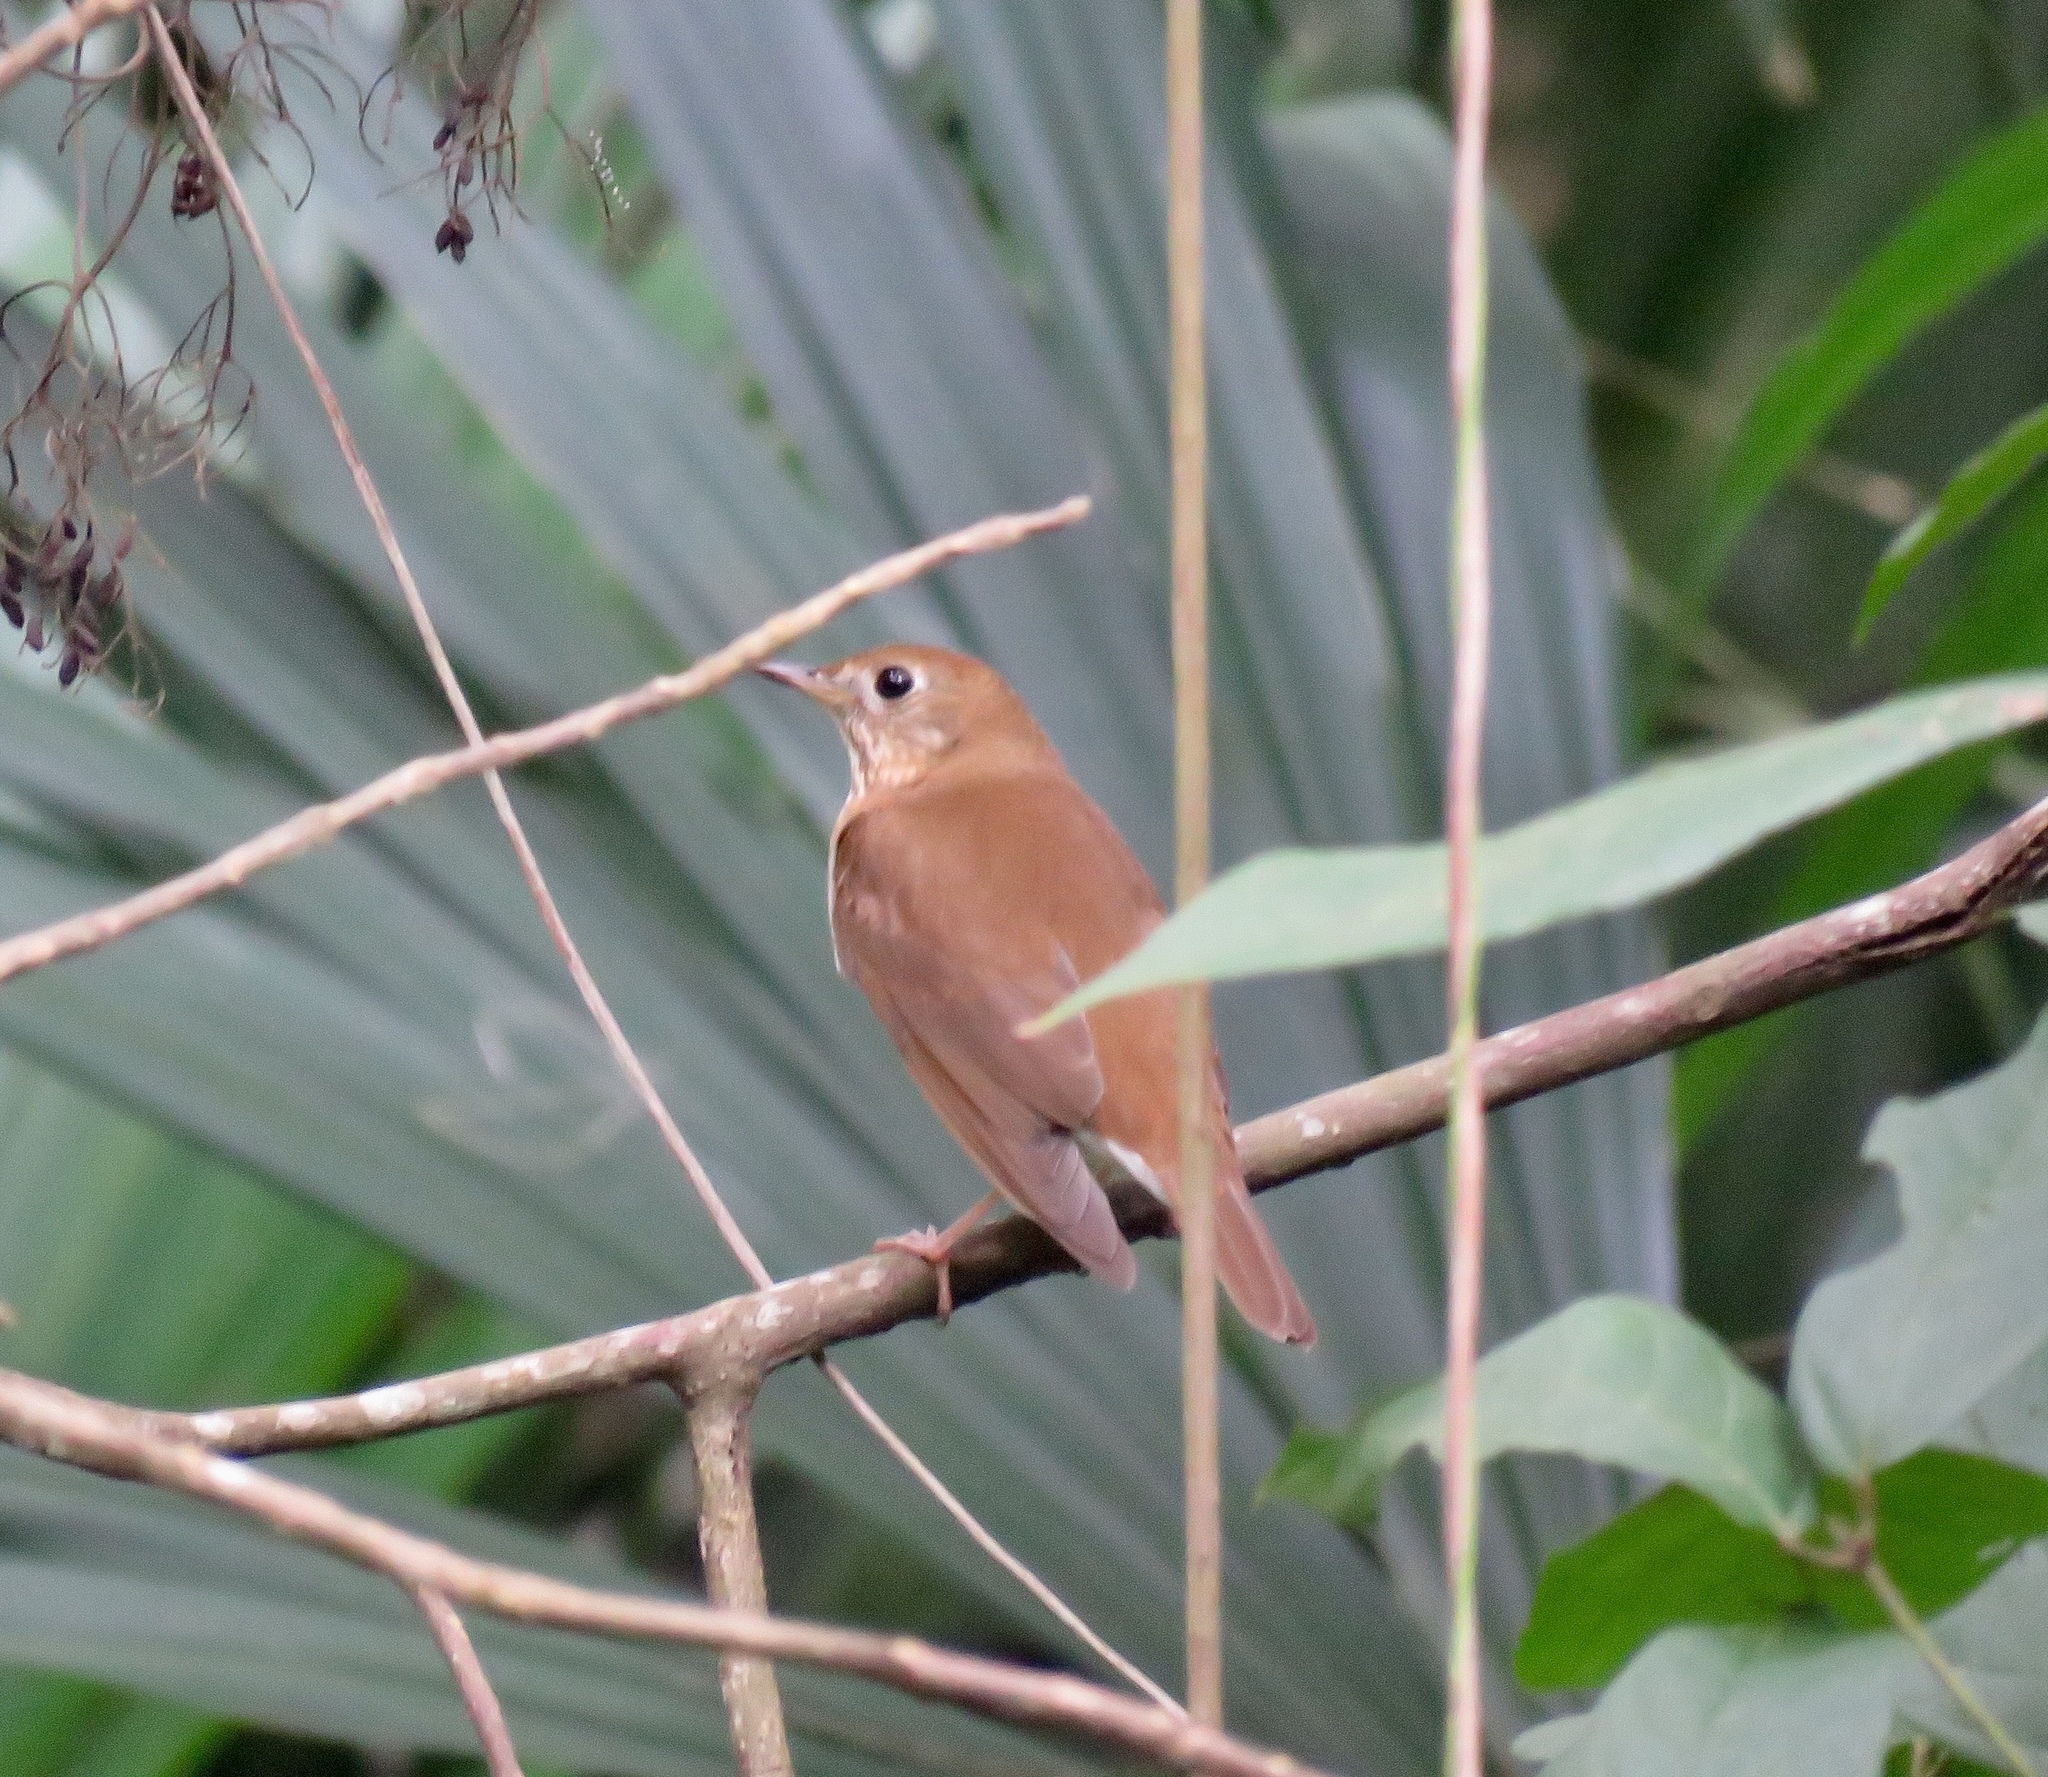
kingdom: Animalia
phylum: Chordata
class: Aves
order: Passeriformes
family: Turdidae
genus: Catharus
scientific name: Catharus fuscescens
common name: Veery
